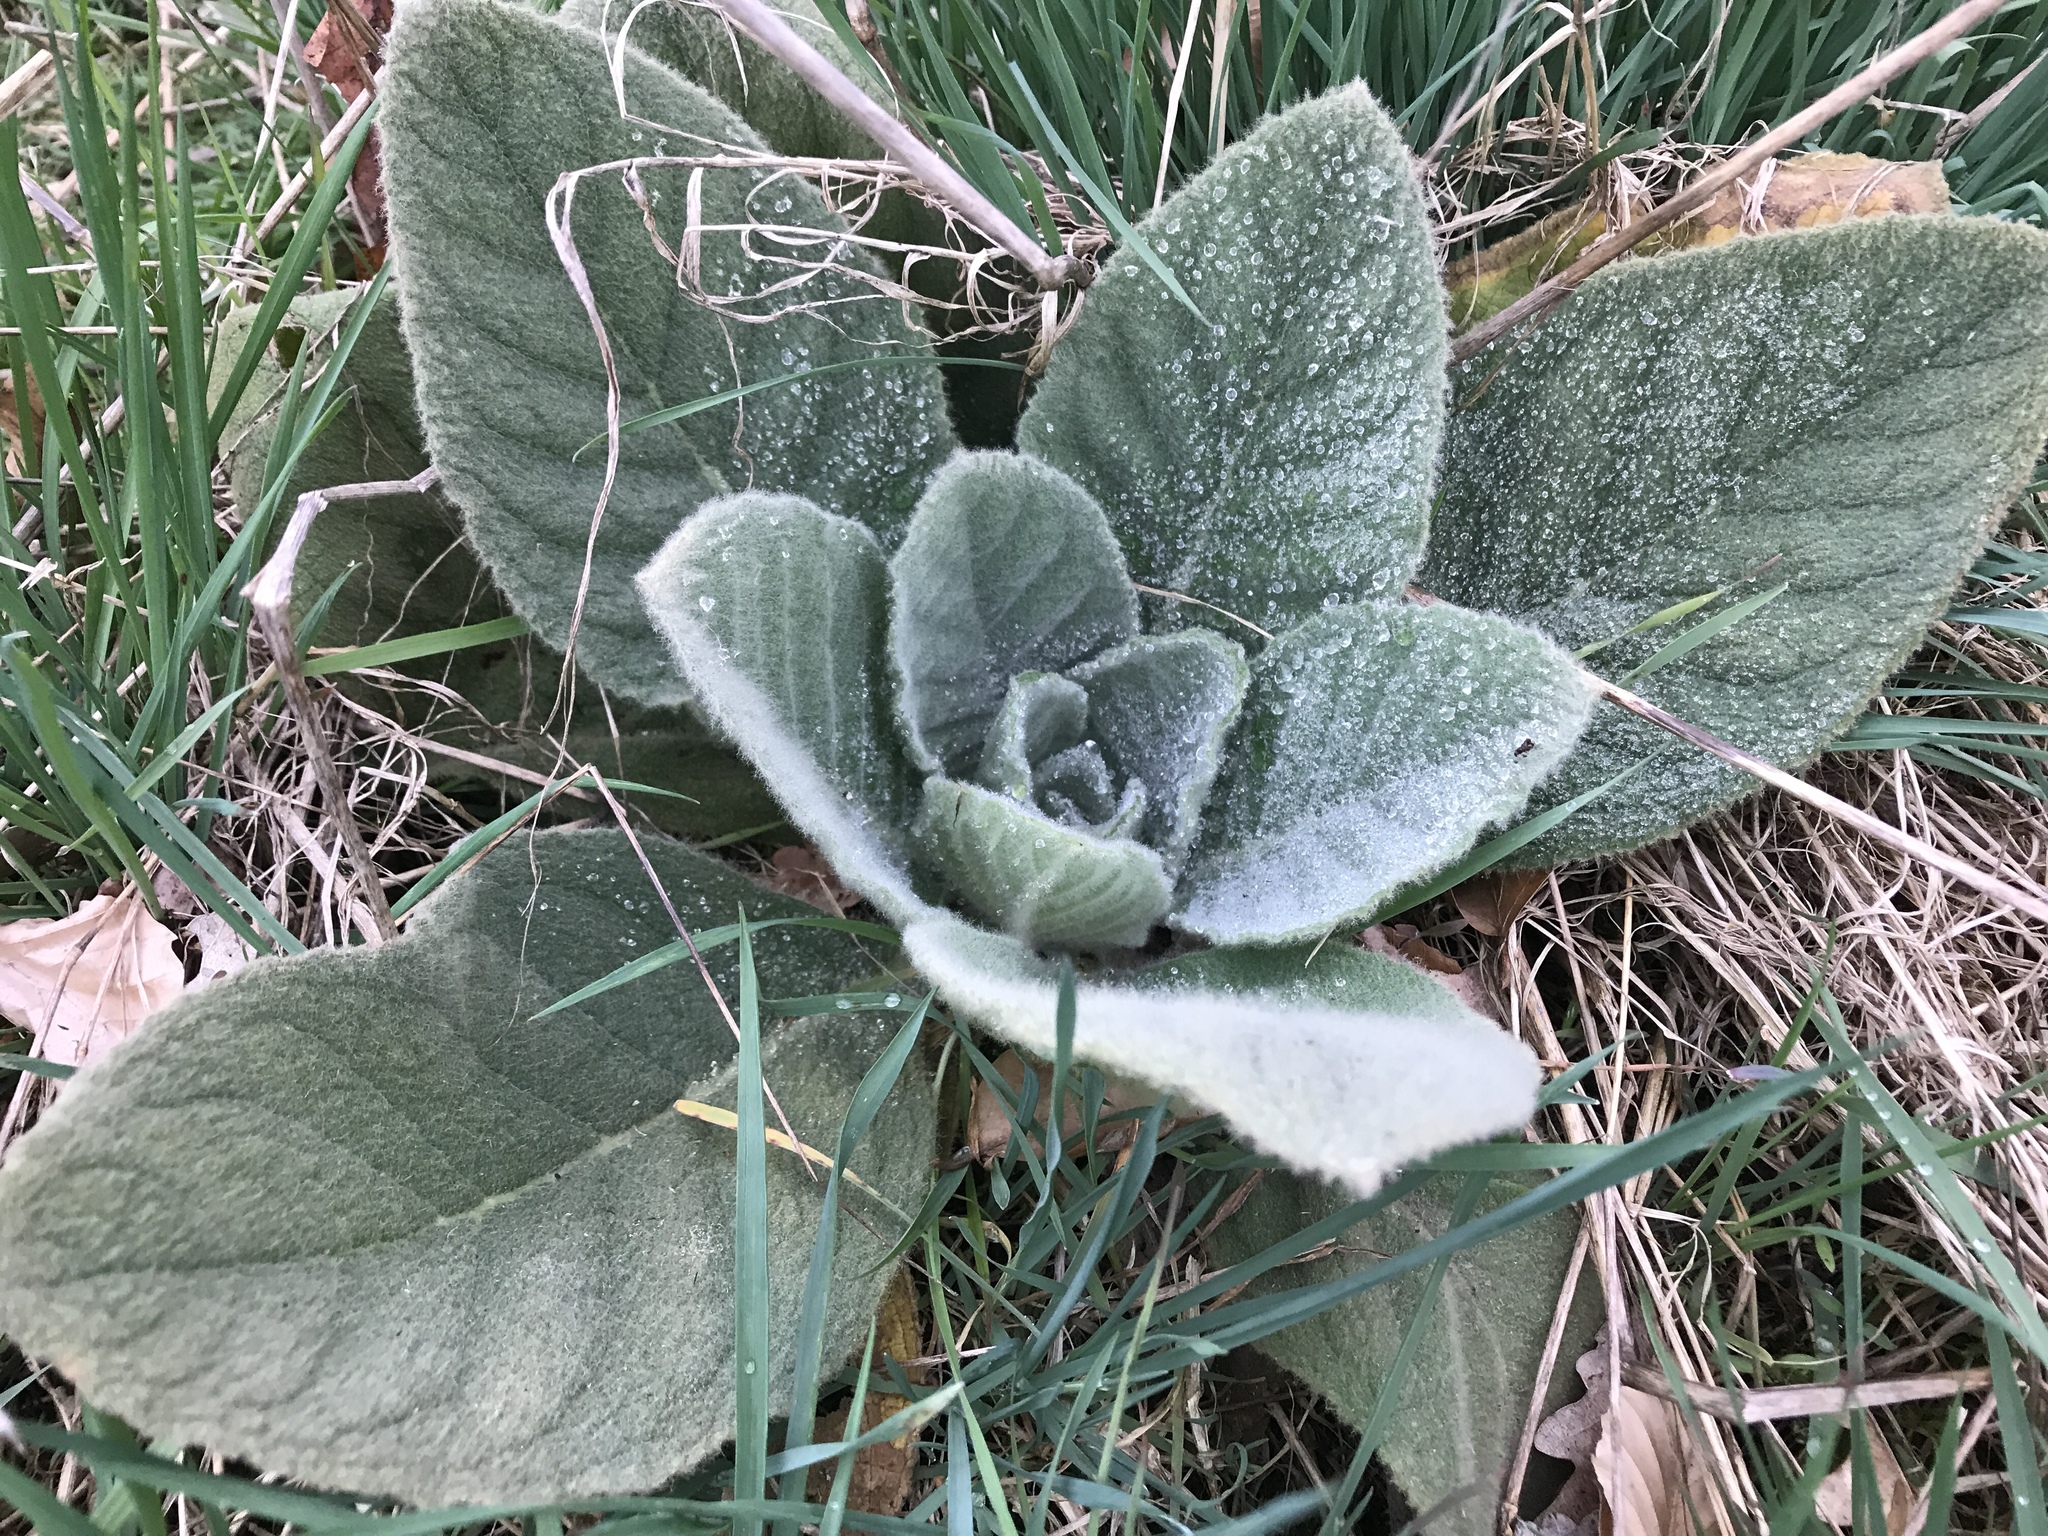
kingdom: Plantae
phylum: Tracheophyta
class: Magnoliopsida
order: Lamiales
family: Scrophulariaceae
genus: Verbascum
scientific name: Verbascum thapsus
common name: Common mullein
